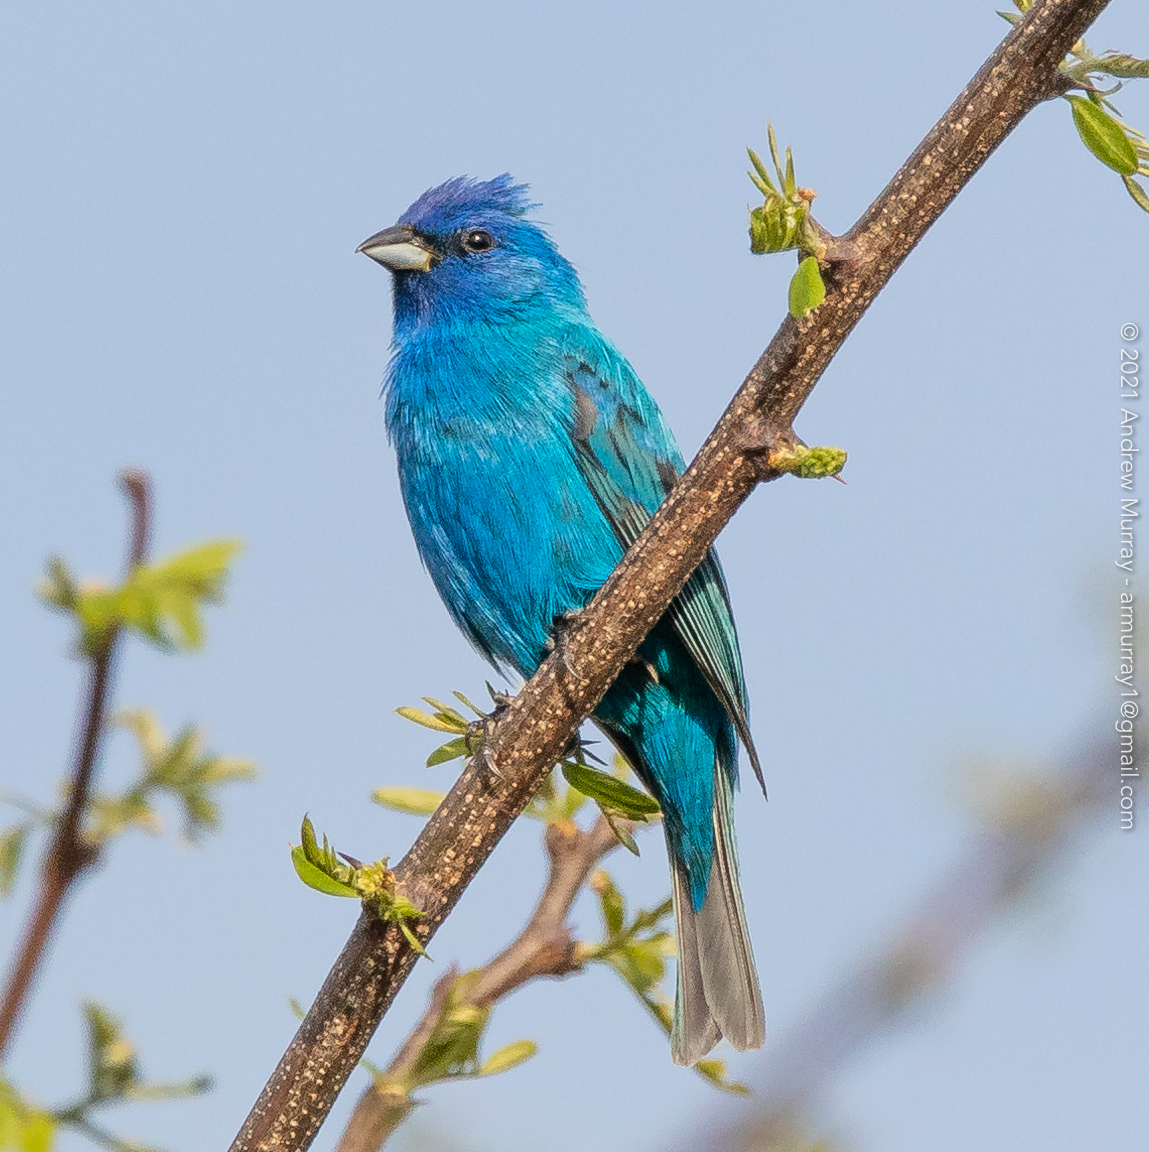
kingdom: Animalia
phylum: Chordata
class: Aves
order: Passeriformes
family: Cardinalidae
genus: Passerina
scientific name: Passerina cyanea
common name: Indigo bunting
